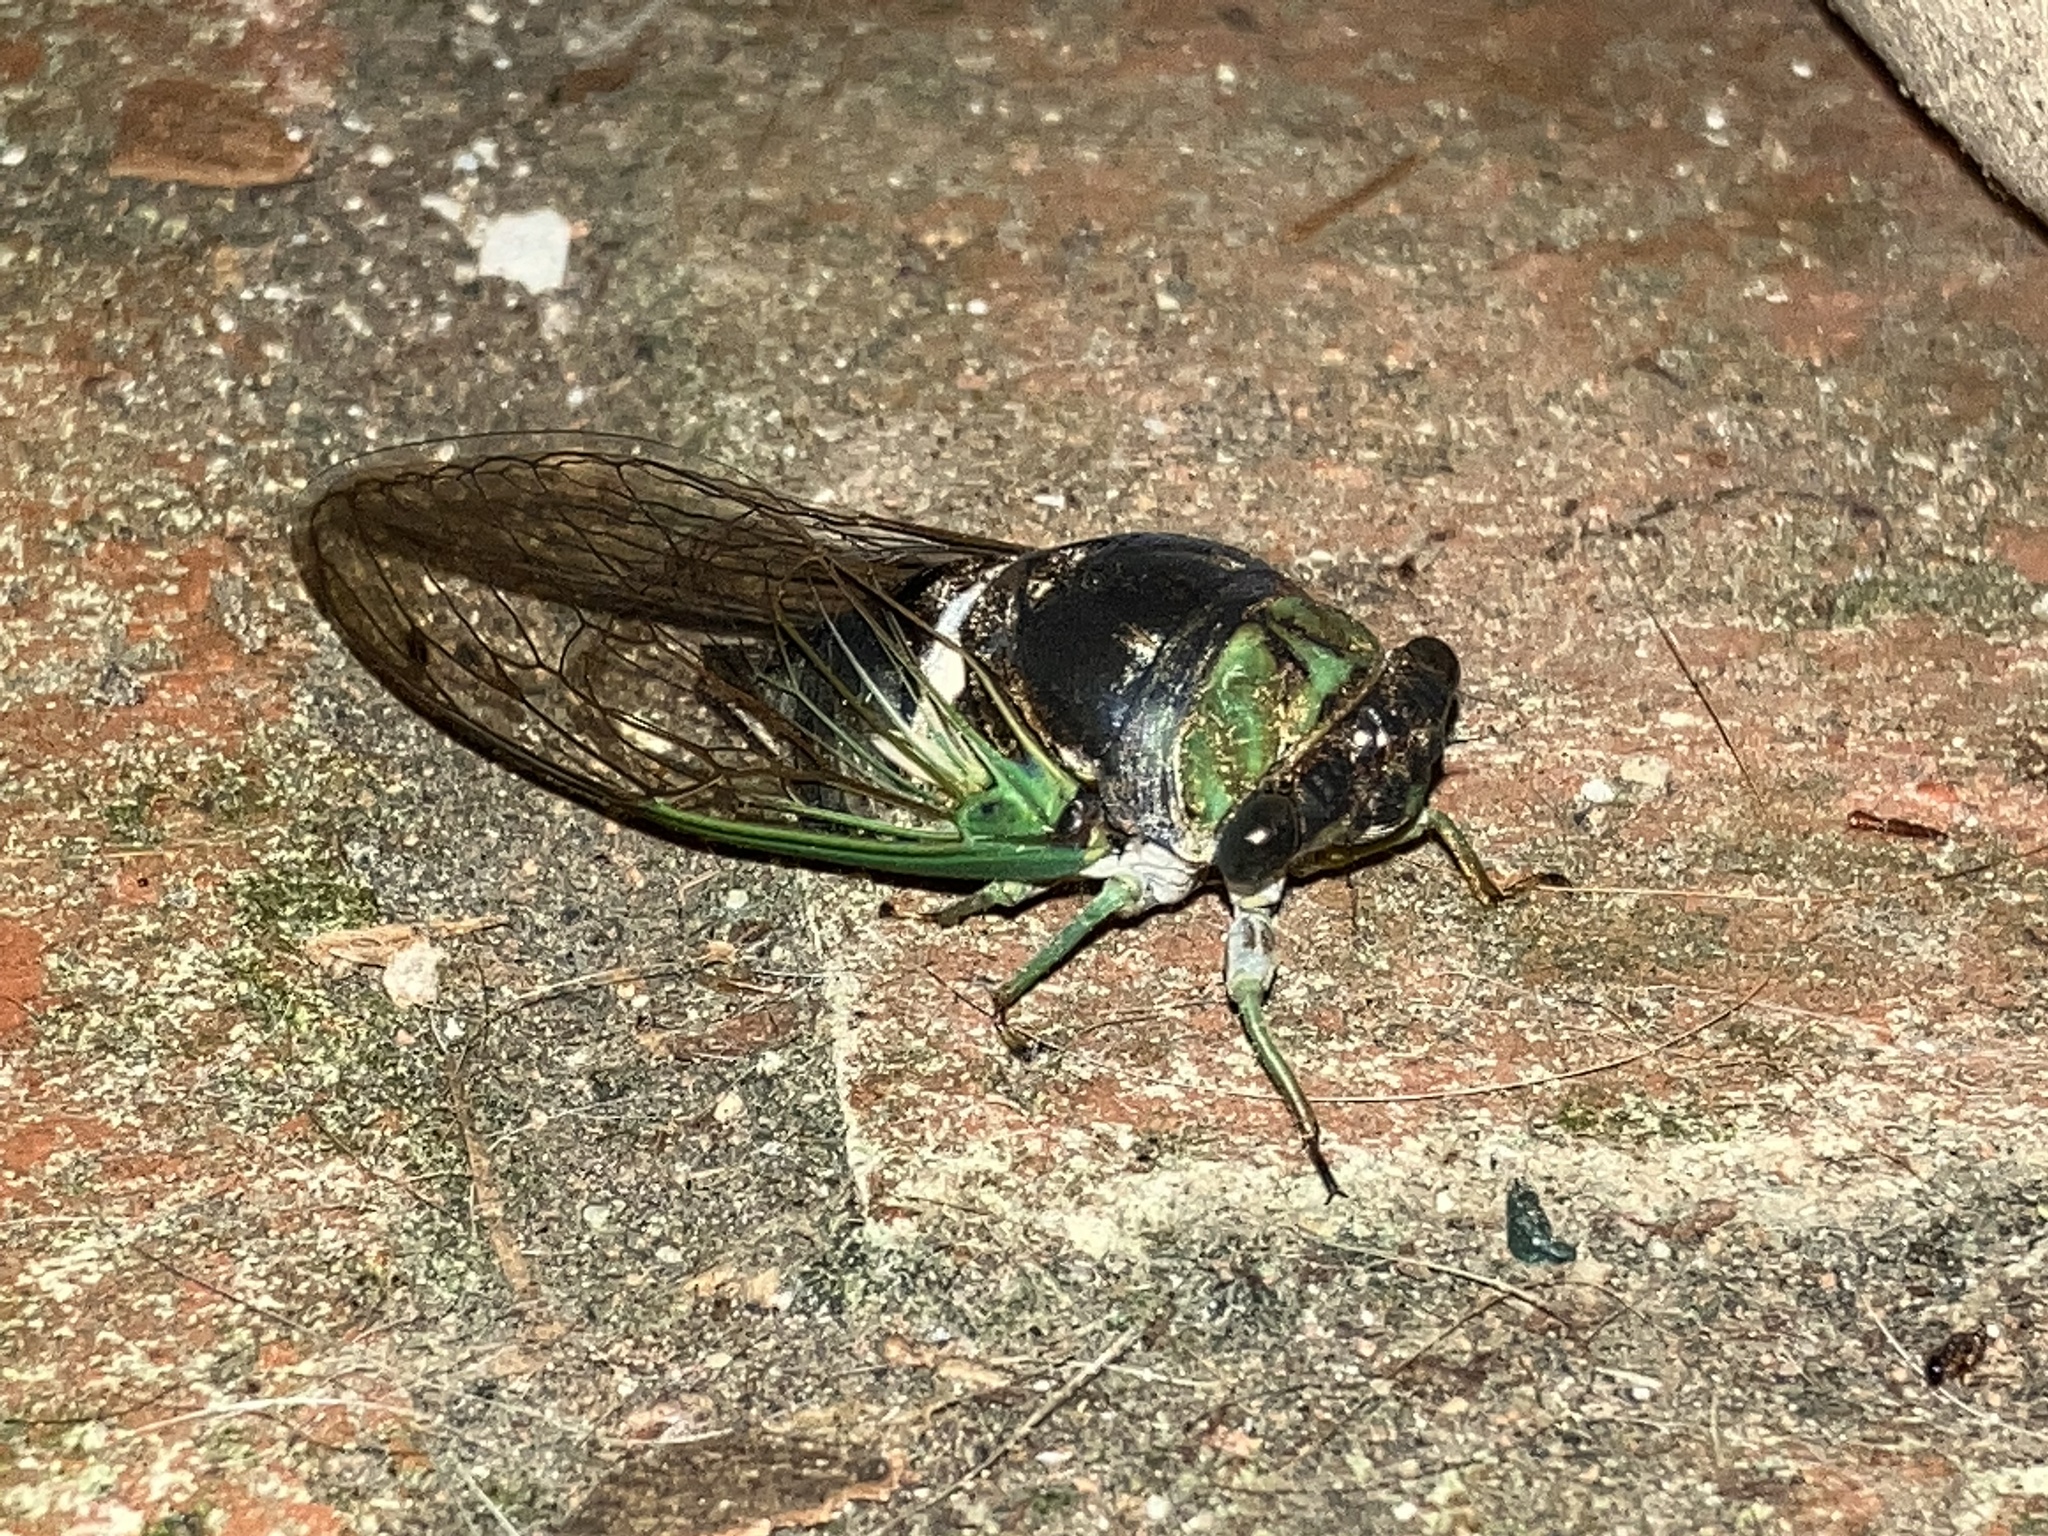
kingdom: Animalia
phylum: Arthropoda
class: Insecta
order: Hemiptera
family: Cicadidae
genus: Neotibicen
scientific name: Neotibicen tibicen
